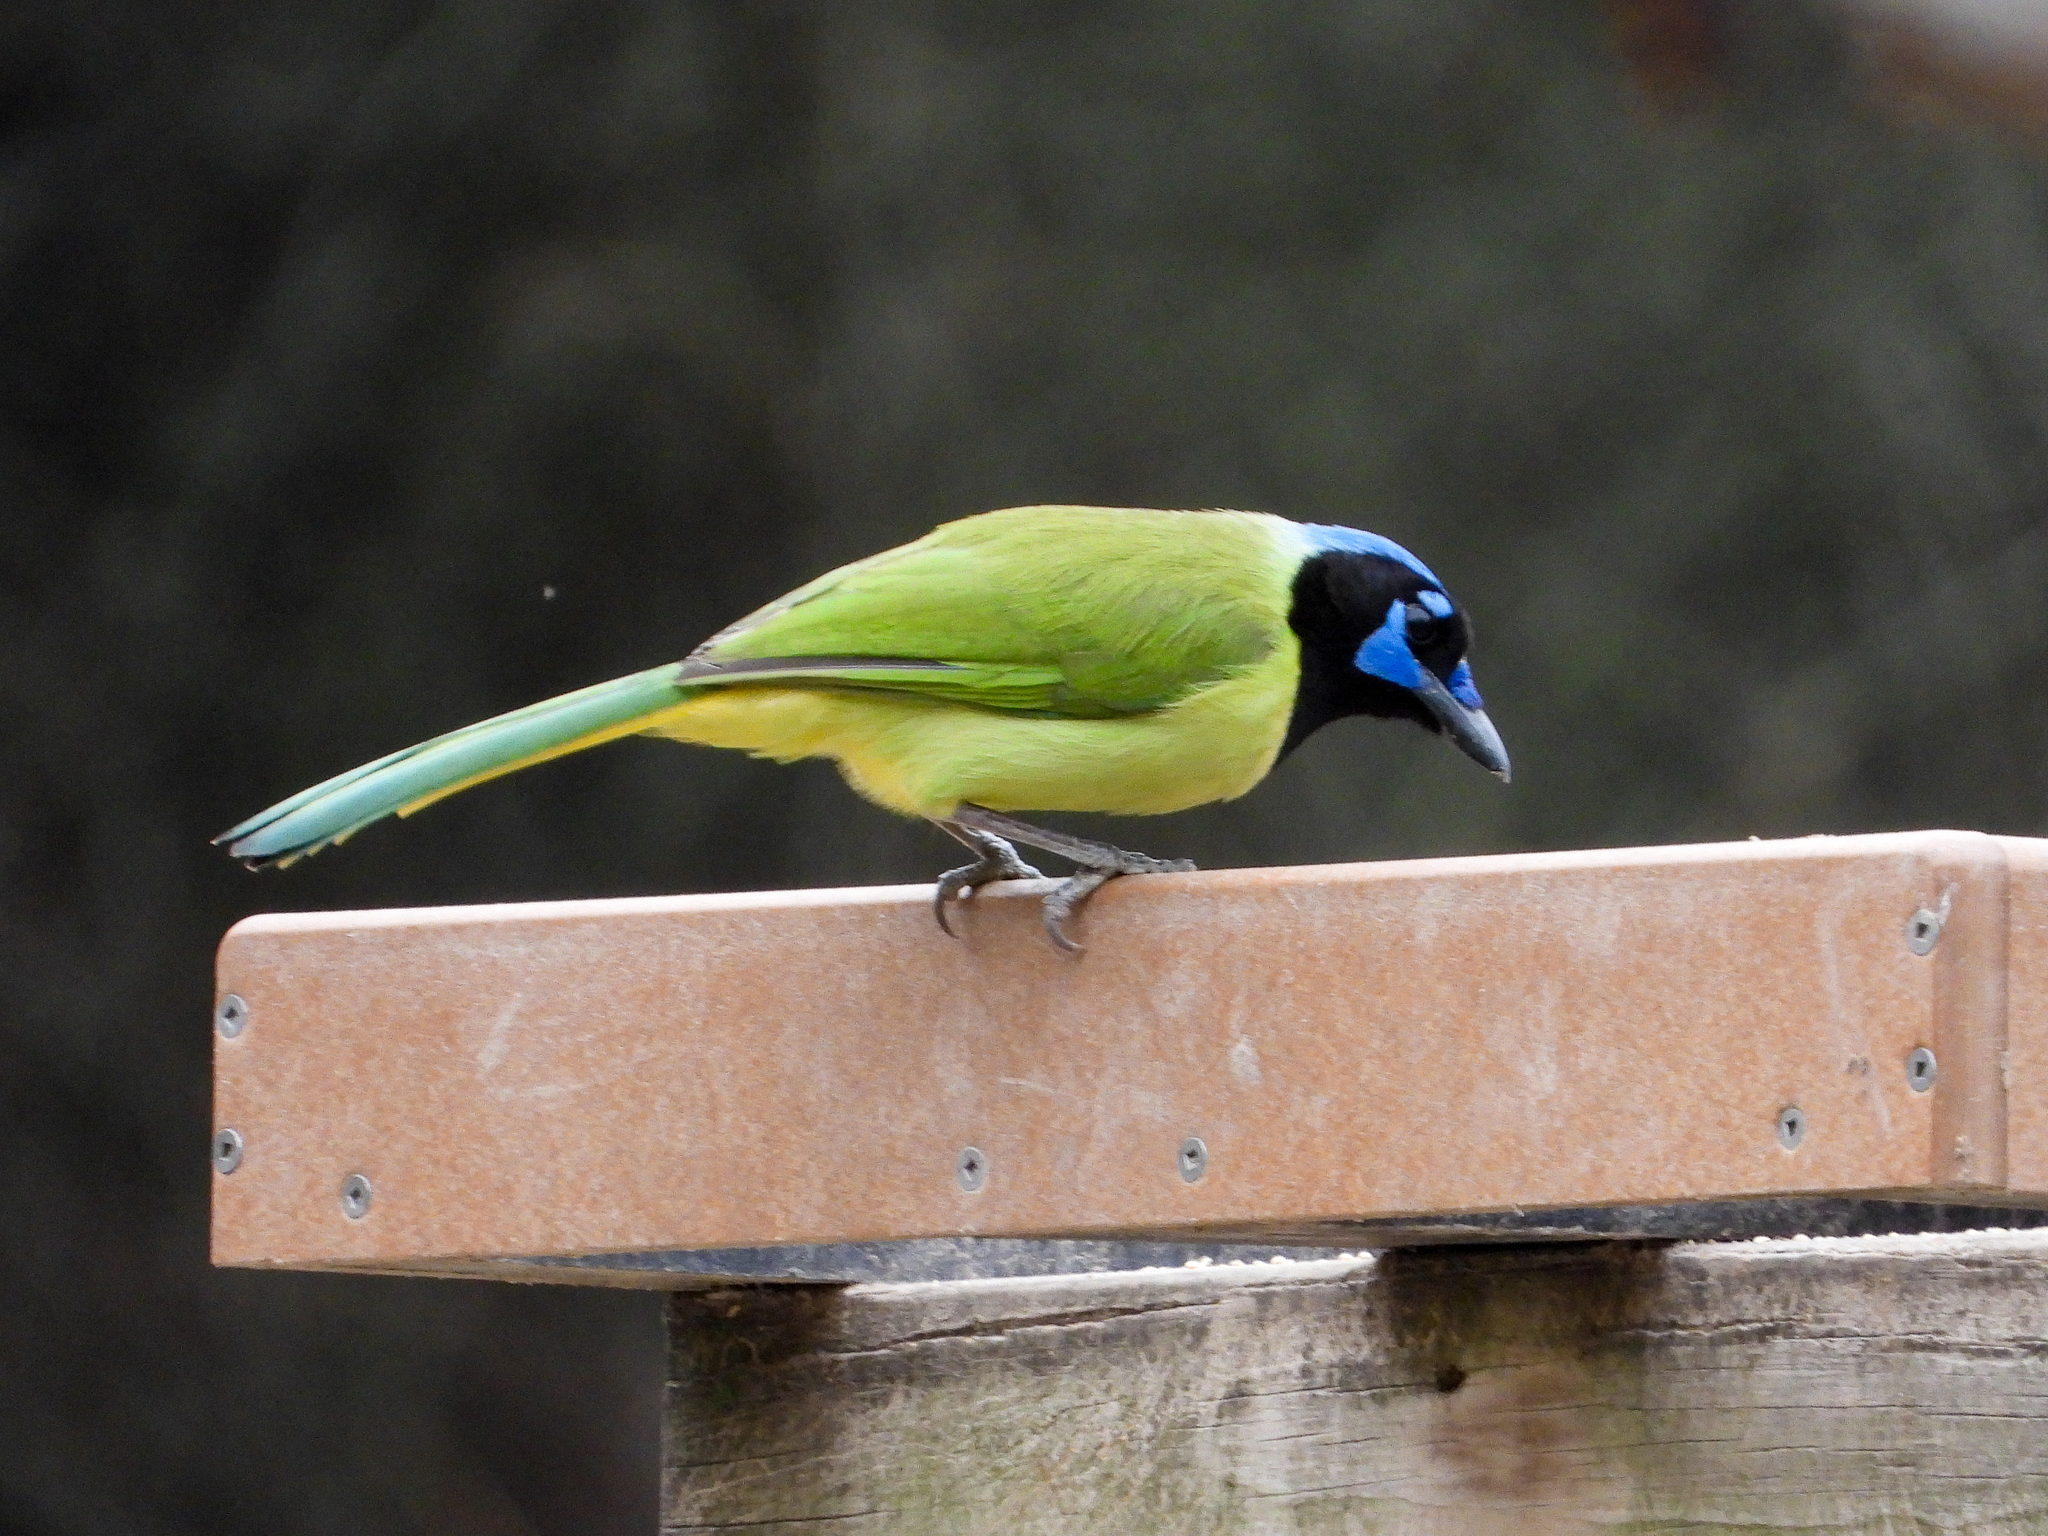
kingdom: Animalia
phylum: Chordata
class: Aves
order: Passeriformes
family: Corvidae
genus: Cyanocorax
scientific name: Cyanocorax yncas
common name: Green jay
